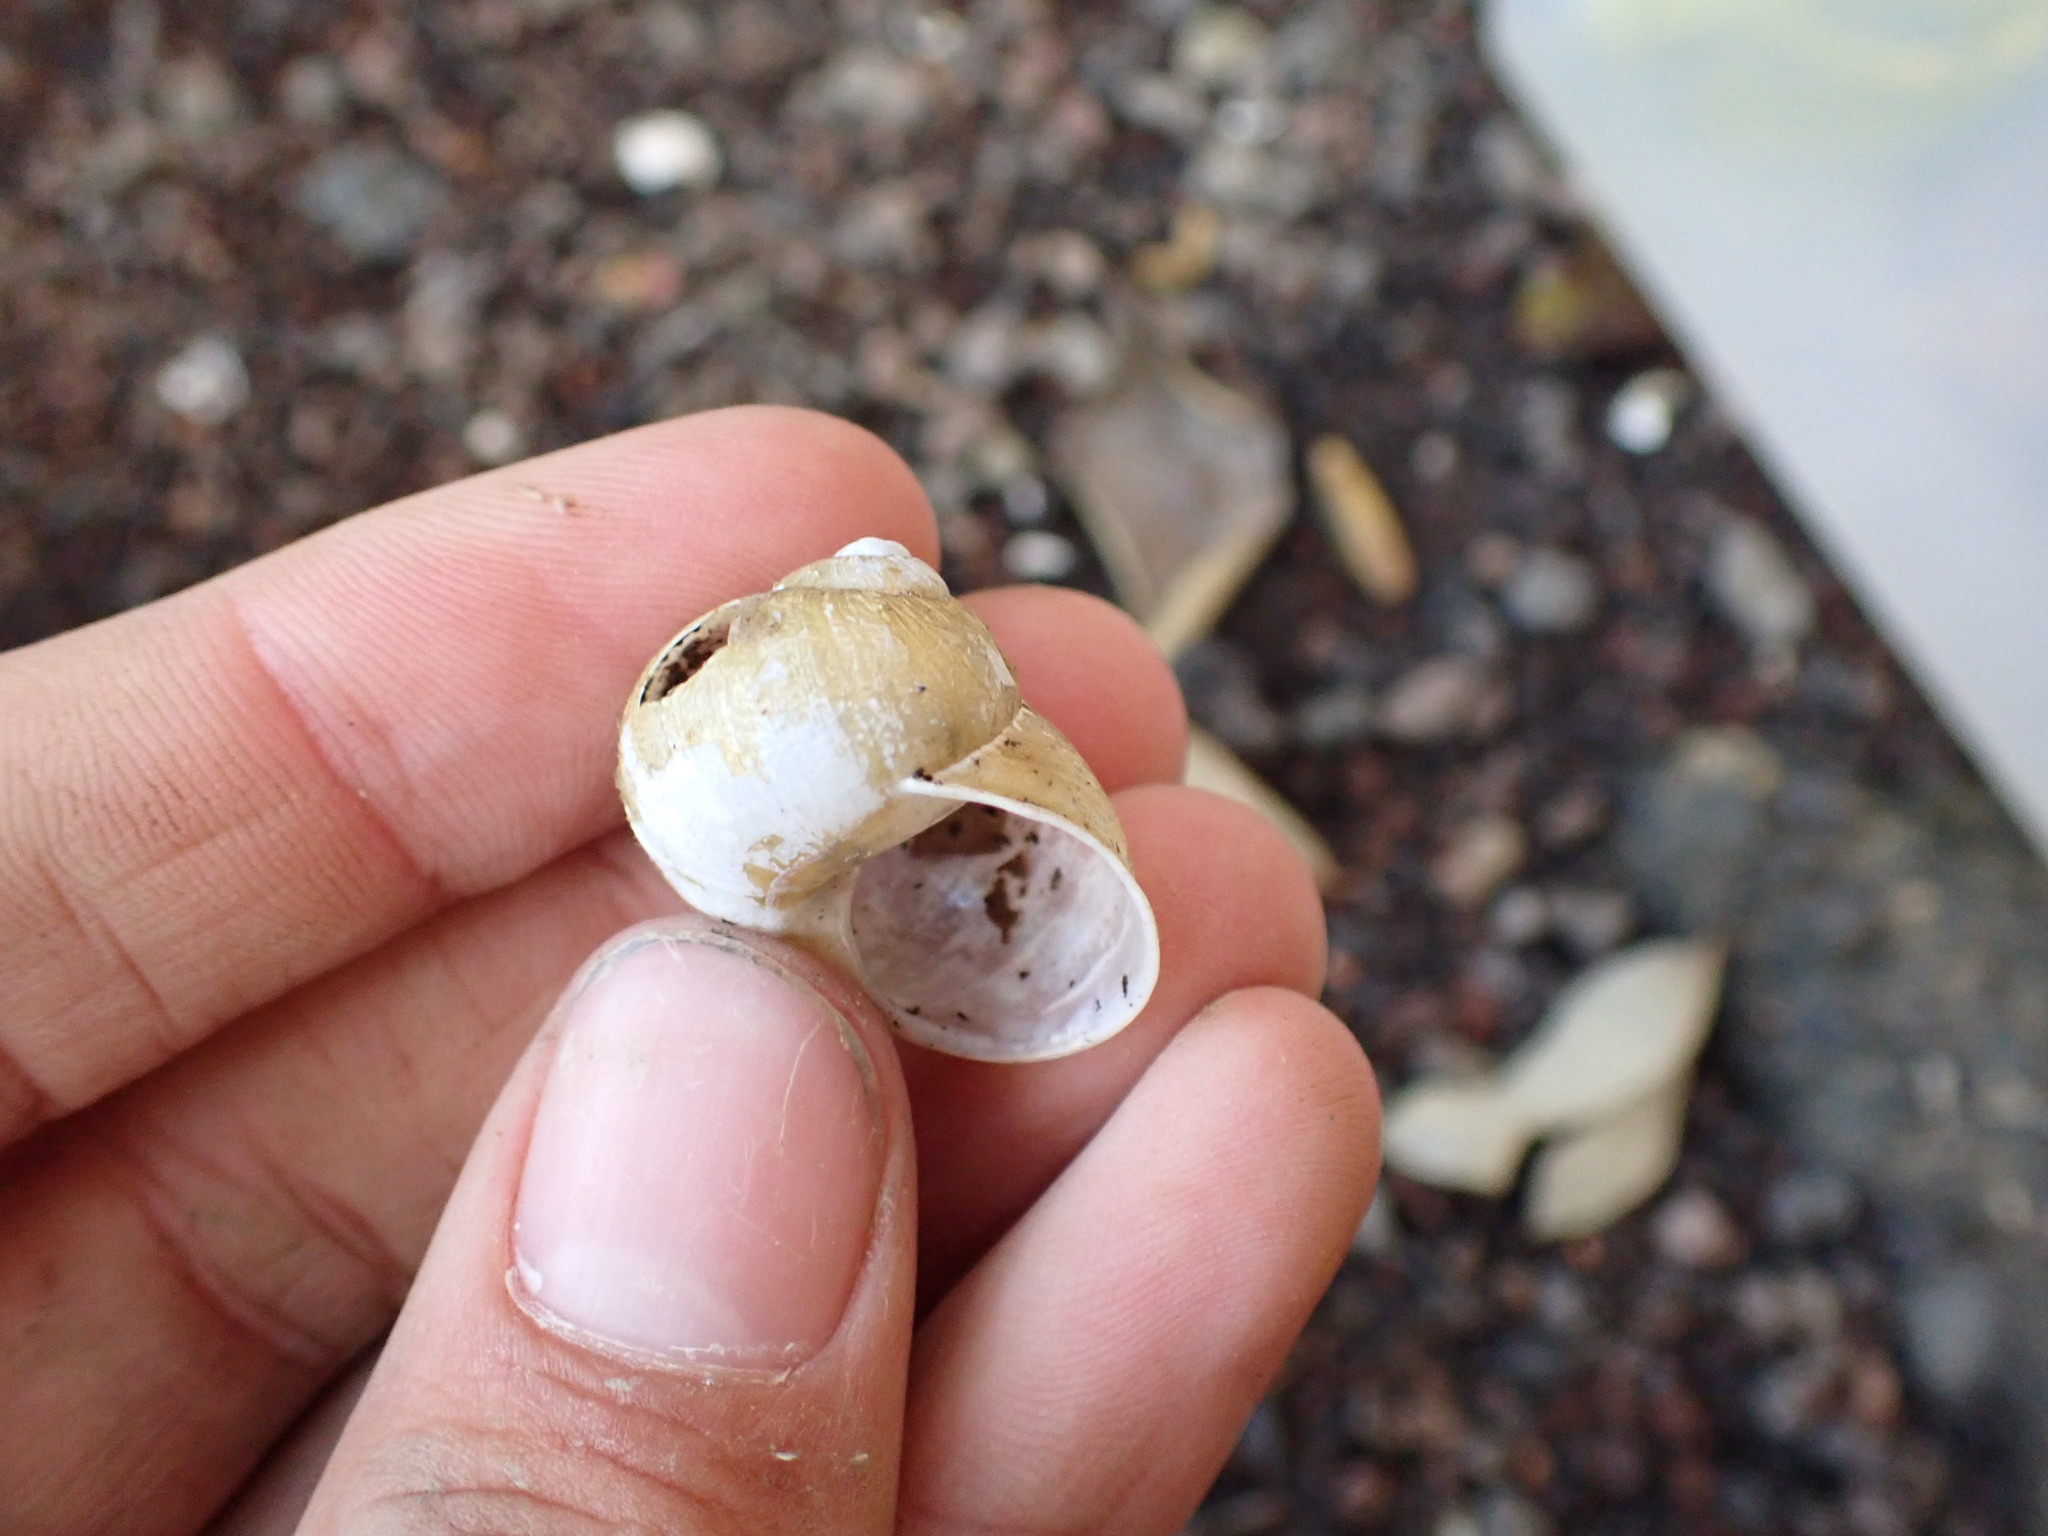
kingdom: Animalia
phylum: Mollusca
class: Gastropoda
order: Stylommatophora
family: Helicidae
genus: Cornu
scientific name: Cornu aspersum
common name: Brown garden snail
